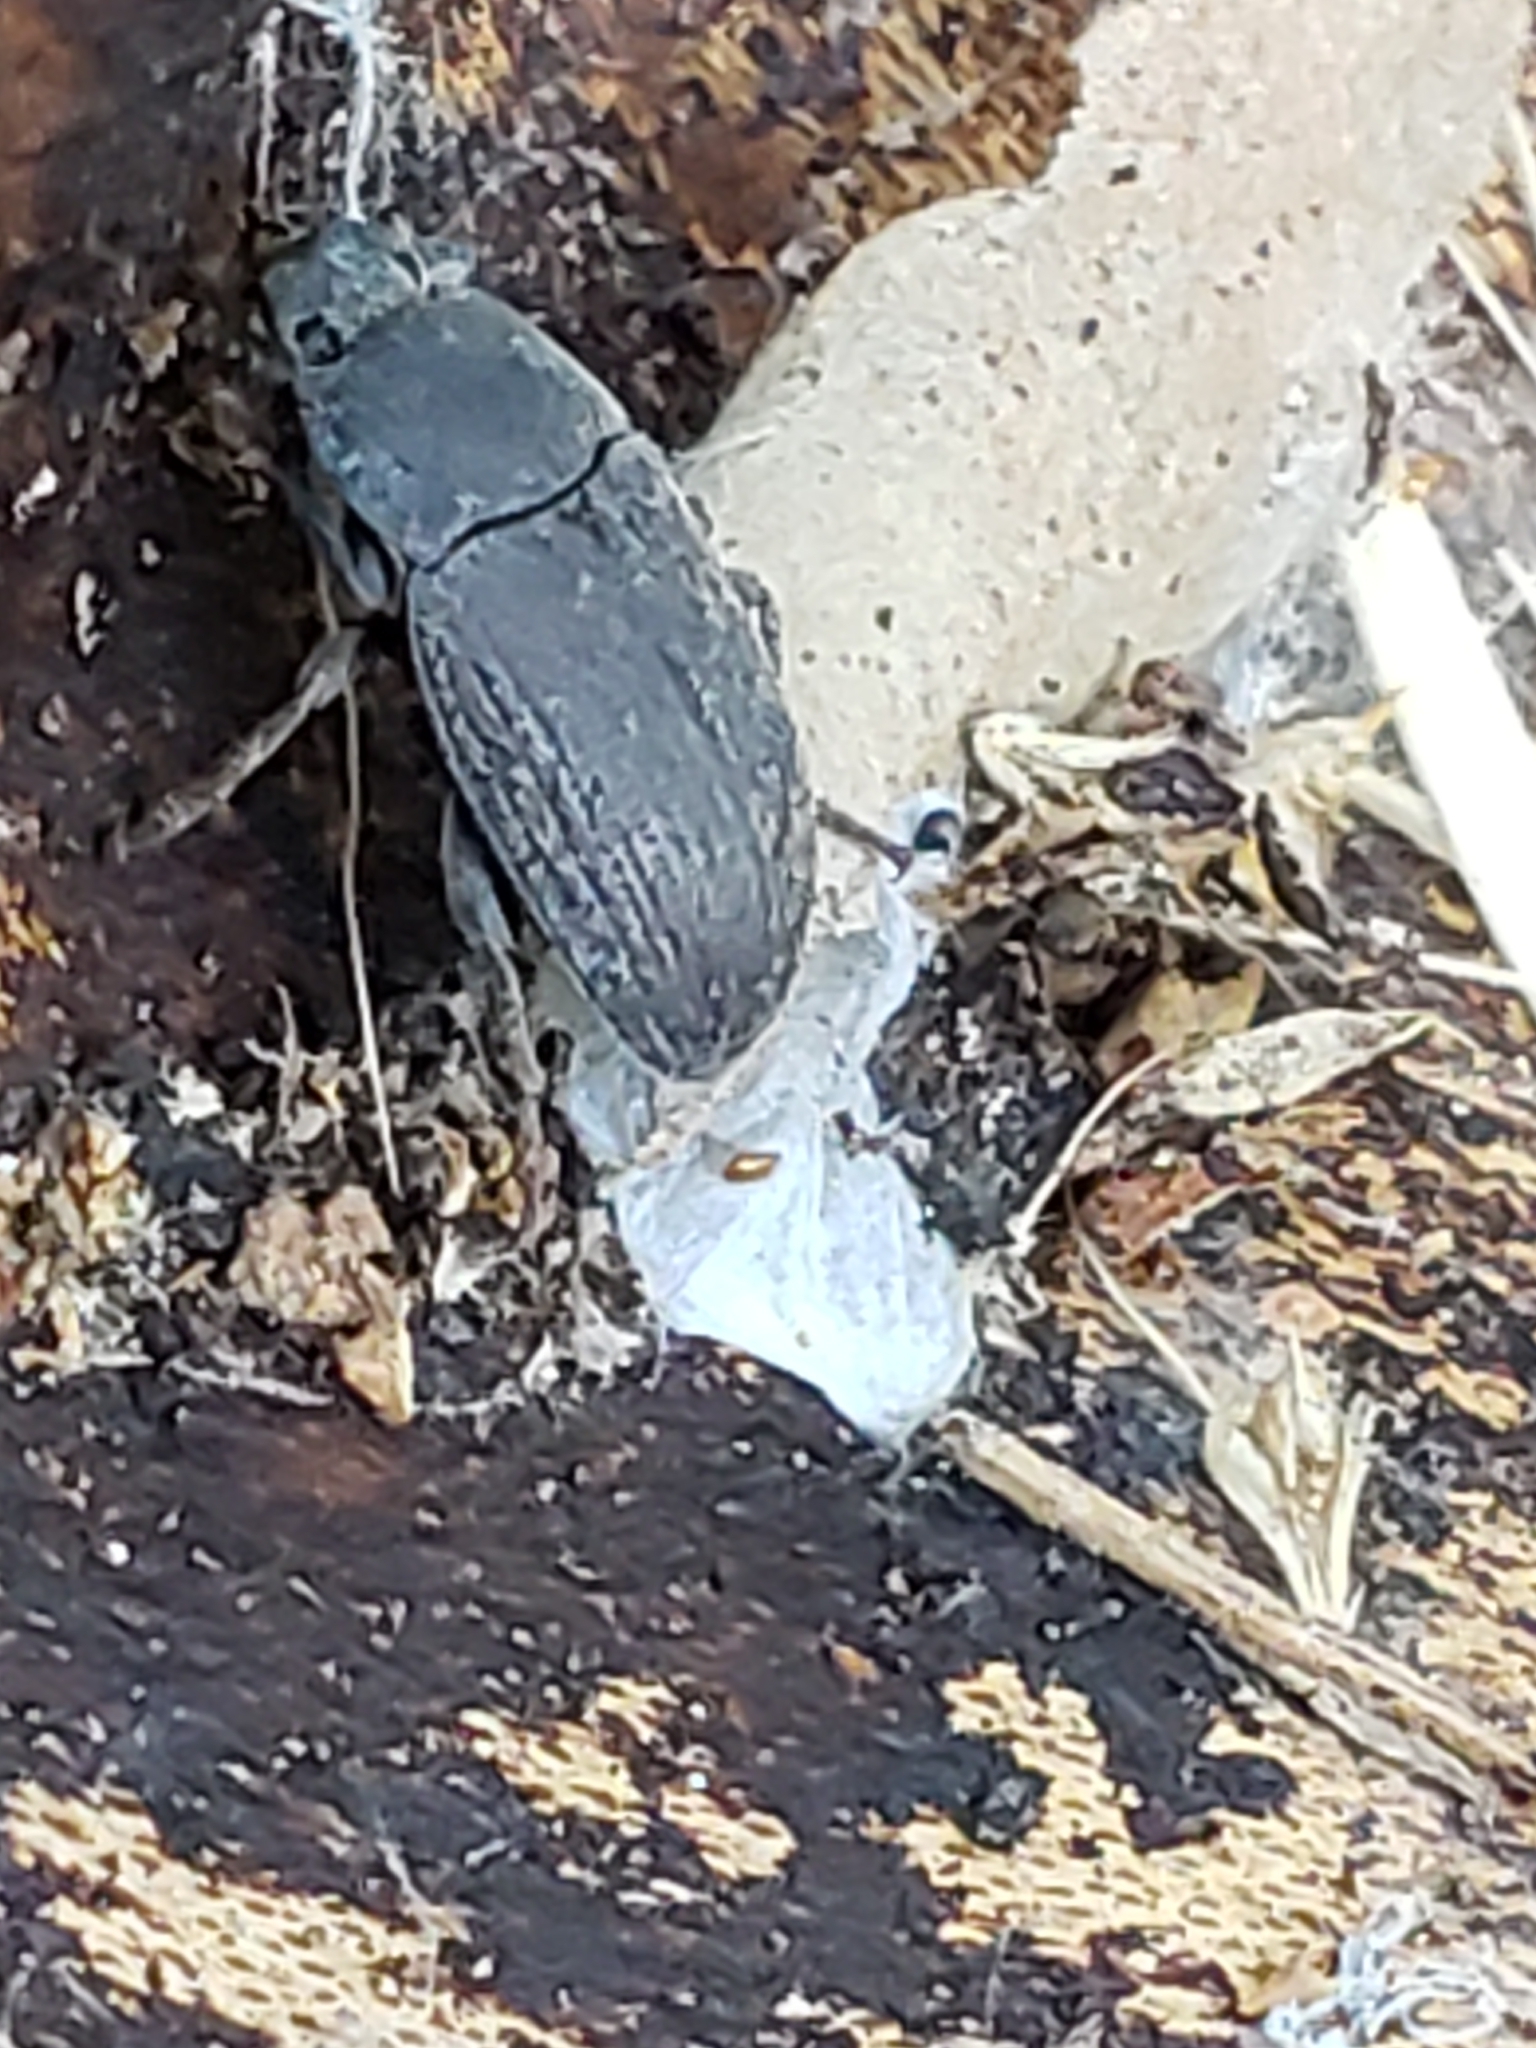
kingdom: Animalia
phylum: Arthropoda
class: Insecta
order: Coleoptera
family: Tenebrionidae
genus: Blapstinus
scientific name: Blapstinus fortis
